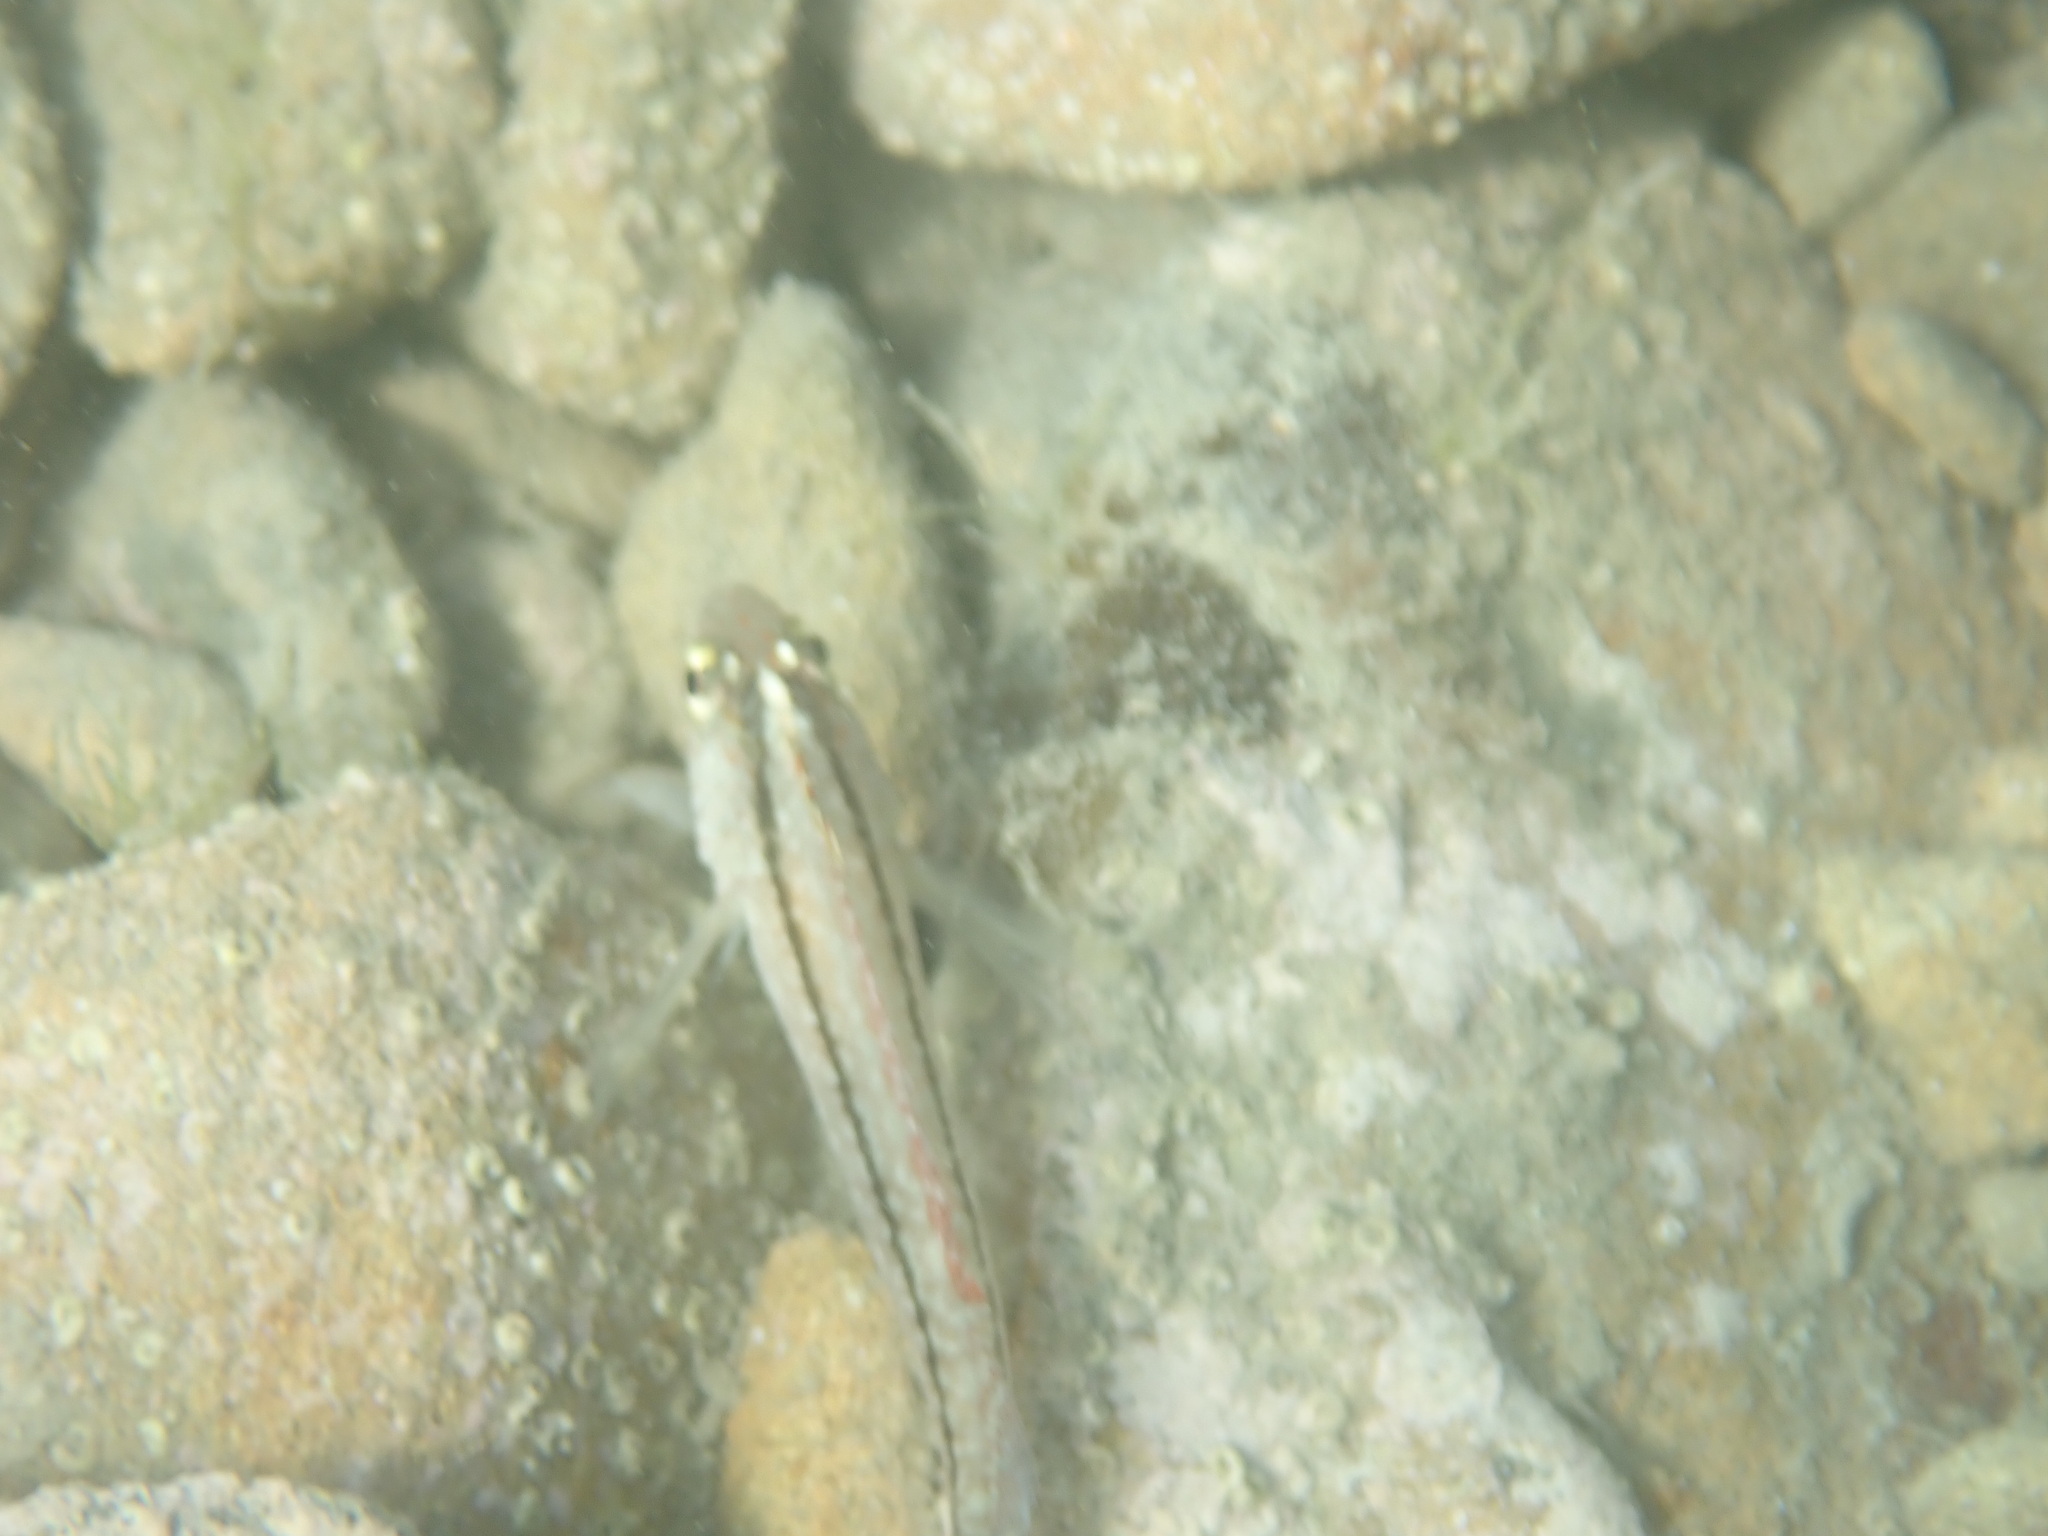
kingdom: Animalia
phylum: Chordata
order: Perciformes
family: Tripterygiidae
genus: Forsterygion
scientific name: Forsterygion lapillum
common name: Common triplefin
